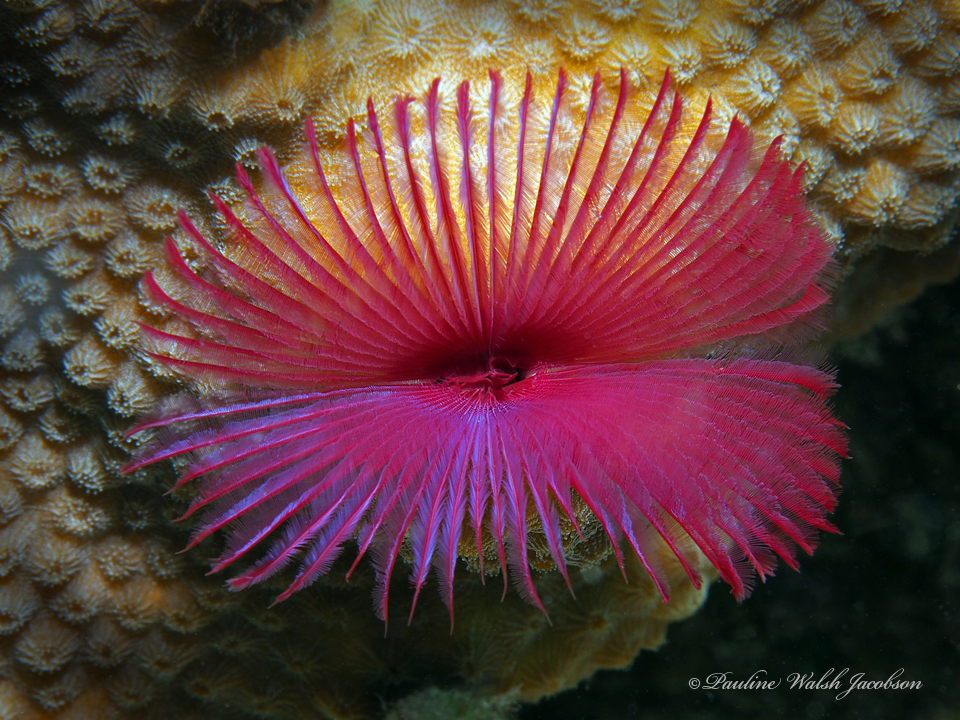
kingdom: Animalia
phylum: Annelida
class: Polychaeta
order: Sabellida
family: Sabellidae
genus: Anamobaea
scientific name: Anamobaea orstedii
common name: Split-crown feather duster
